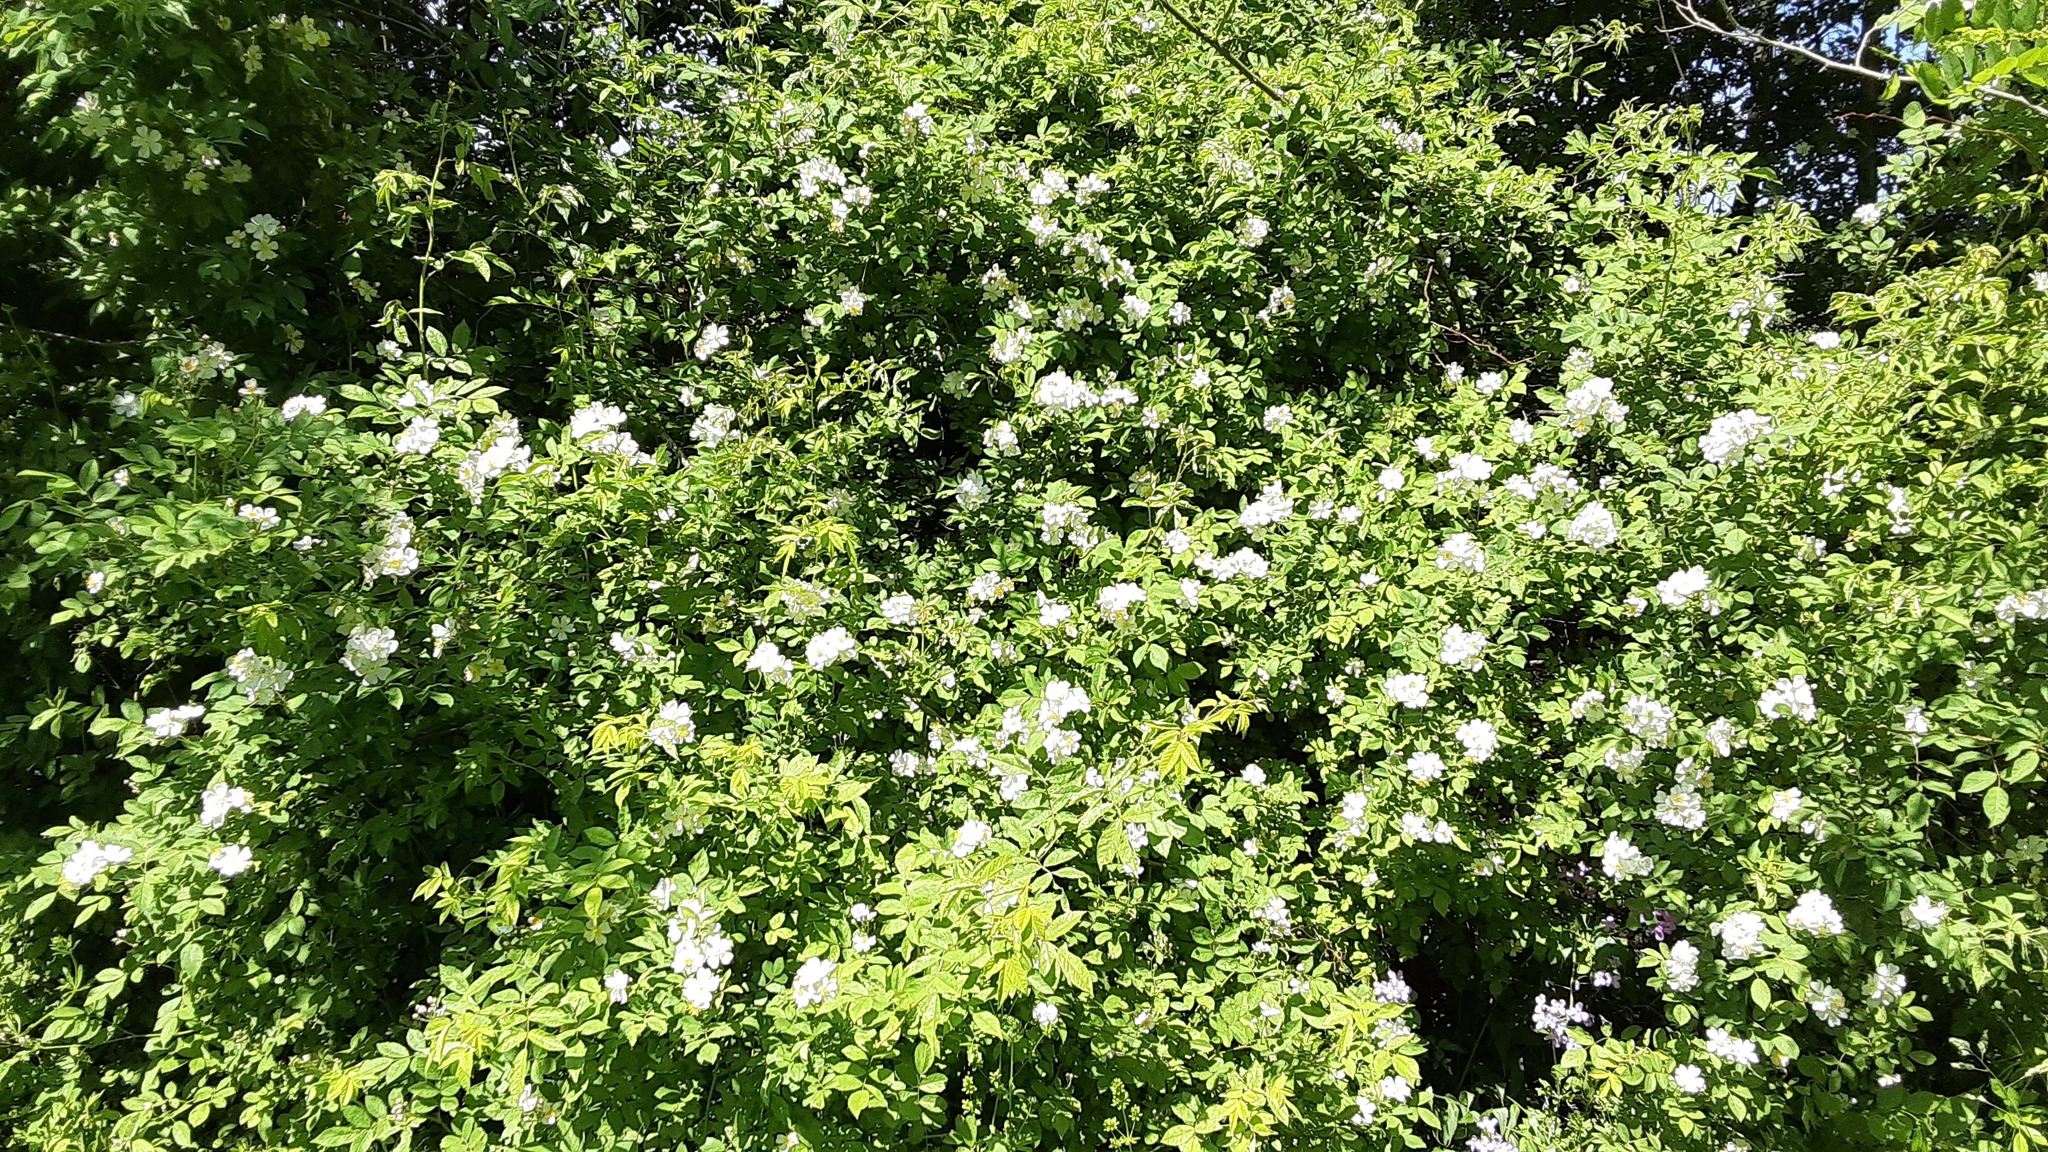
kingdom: Plantae
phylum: Tracheophyta
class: Magnoliopsida
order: Rosales
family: Rosaceae
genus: Rosa
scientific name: Rosa multiflora
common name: Multiflora rose
